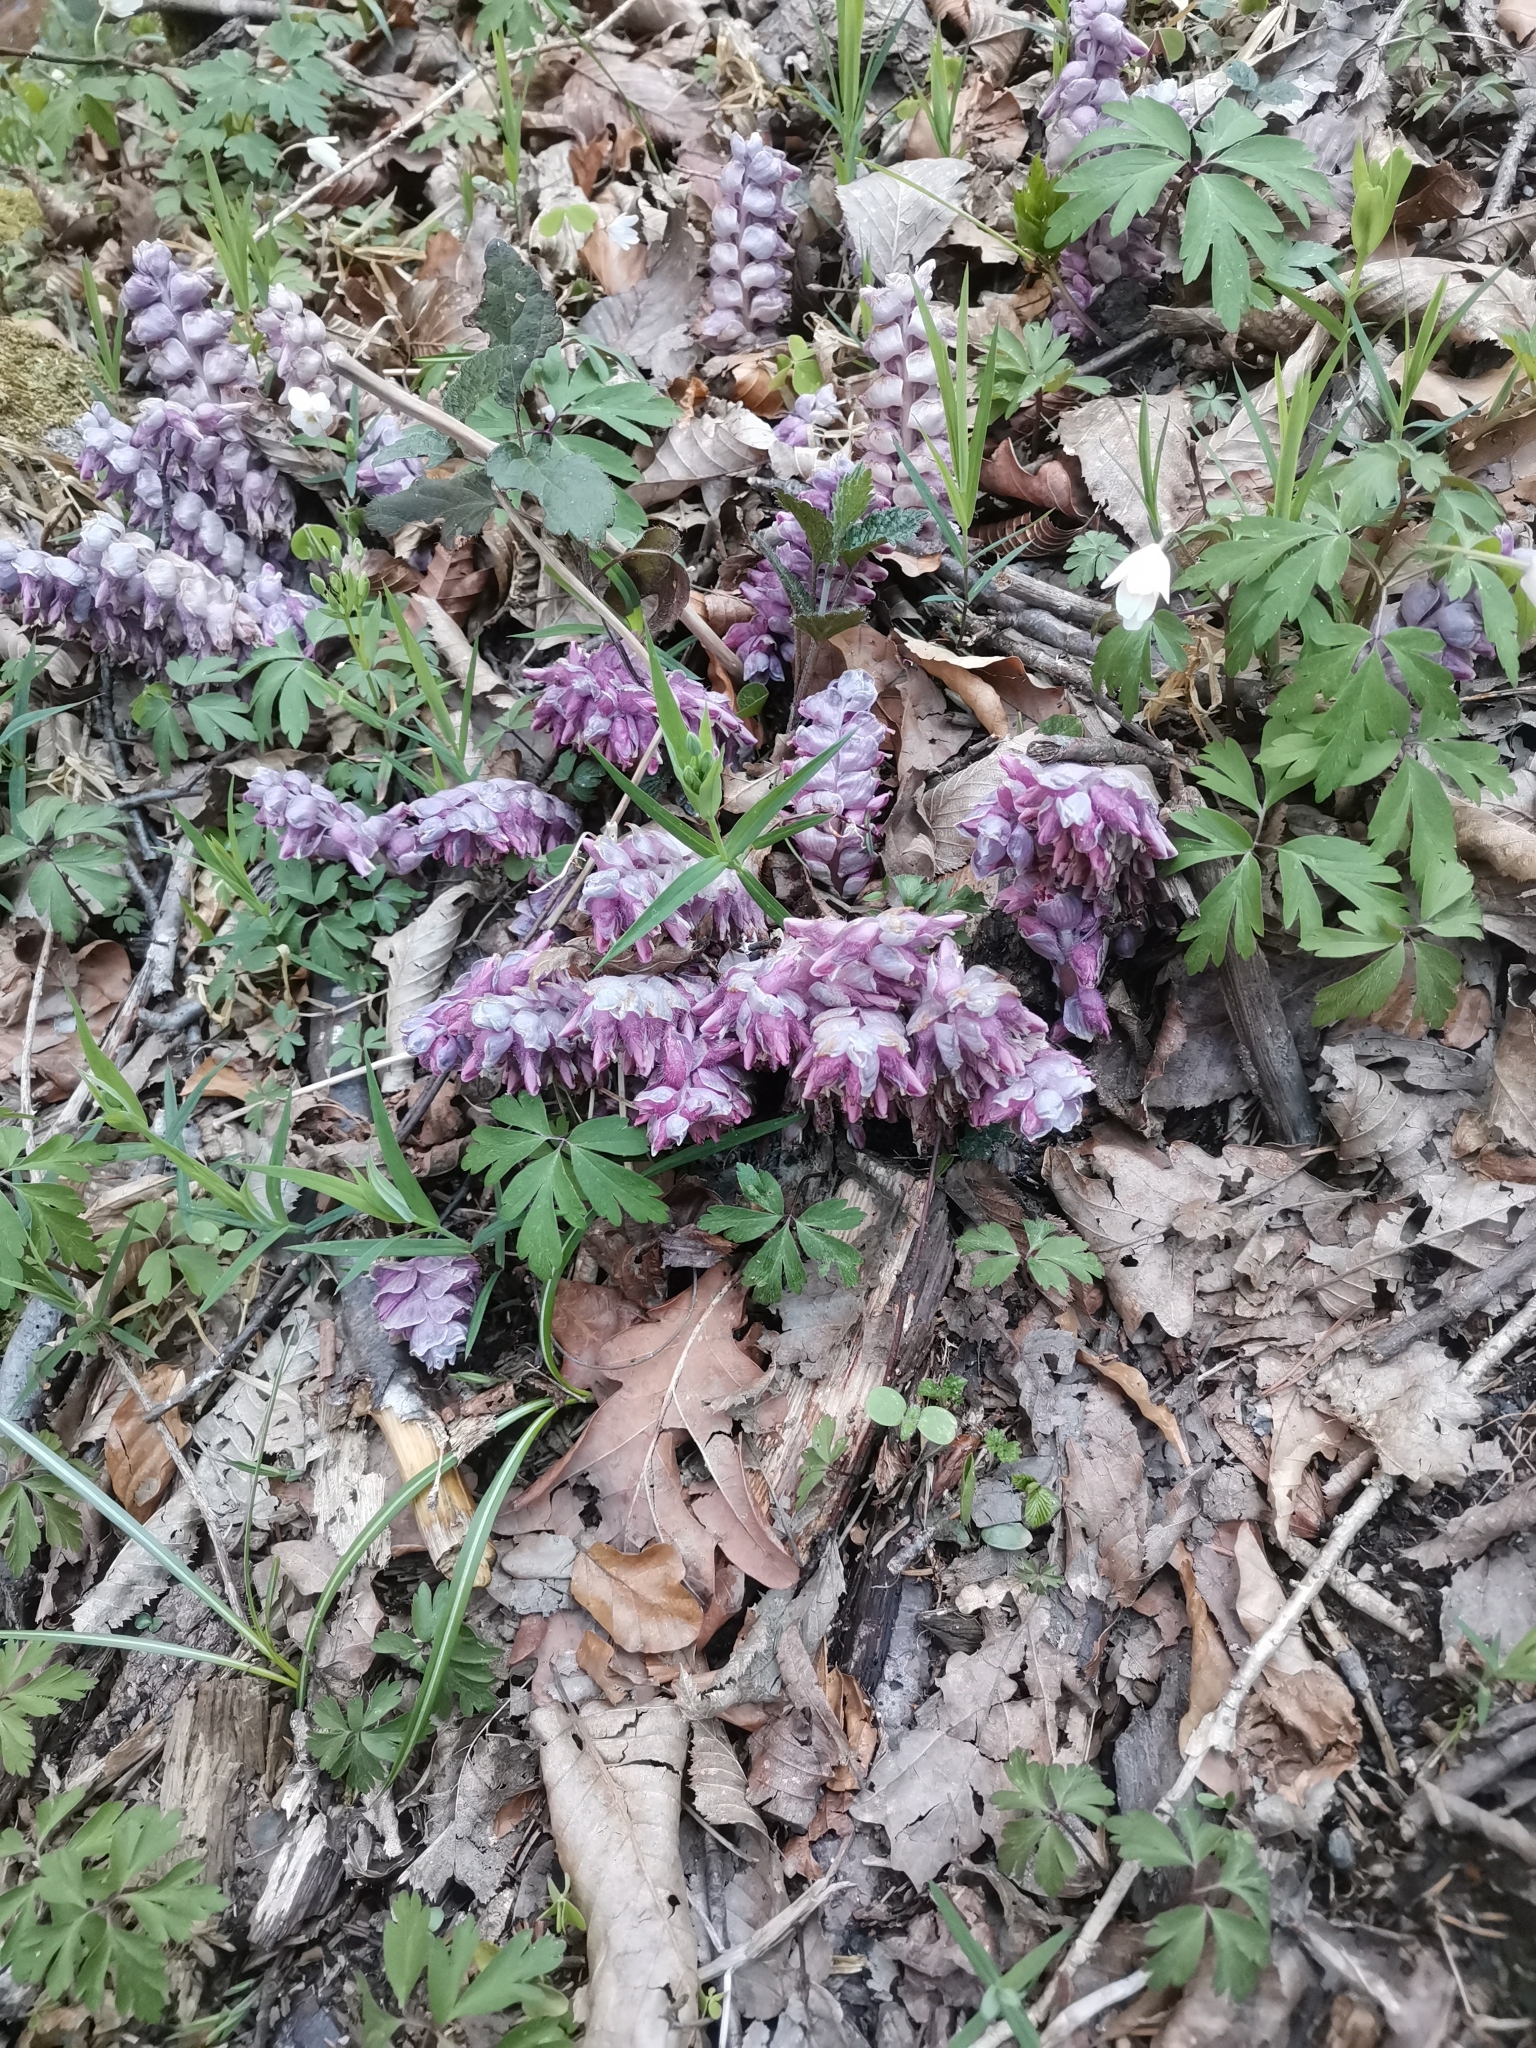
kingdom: Plantae
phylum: Tracheophyta
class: Magnoliopsida
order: Lamiales
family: Orobanchaceae
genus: Lathraea
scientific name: Lathraea squamaria
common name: Toothwort
